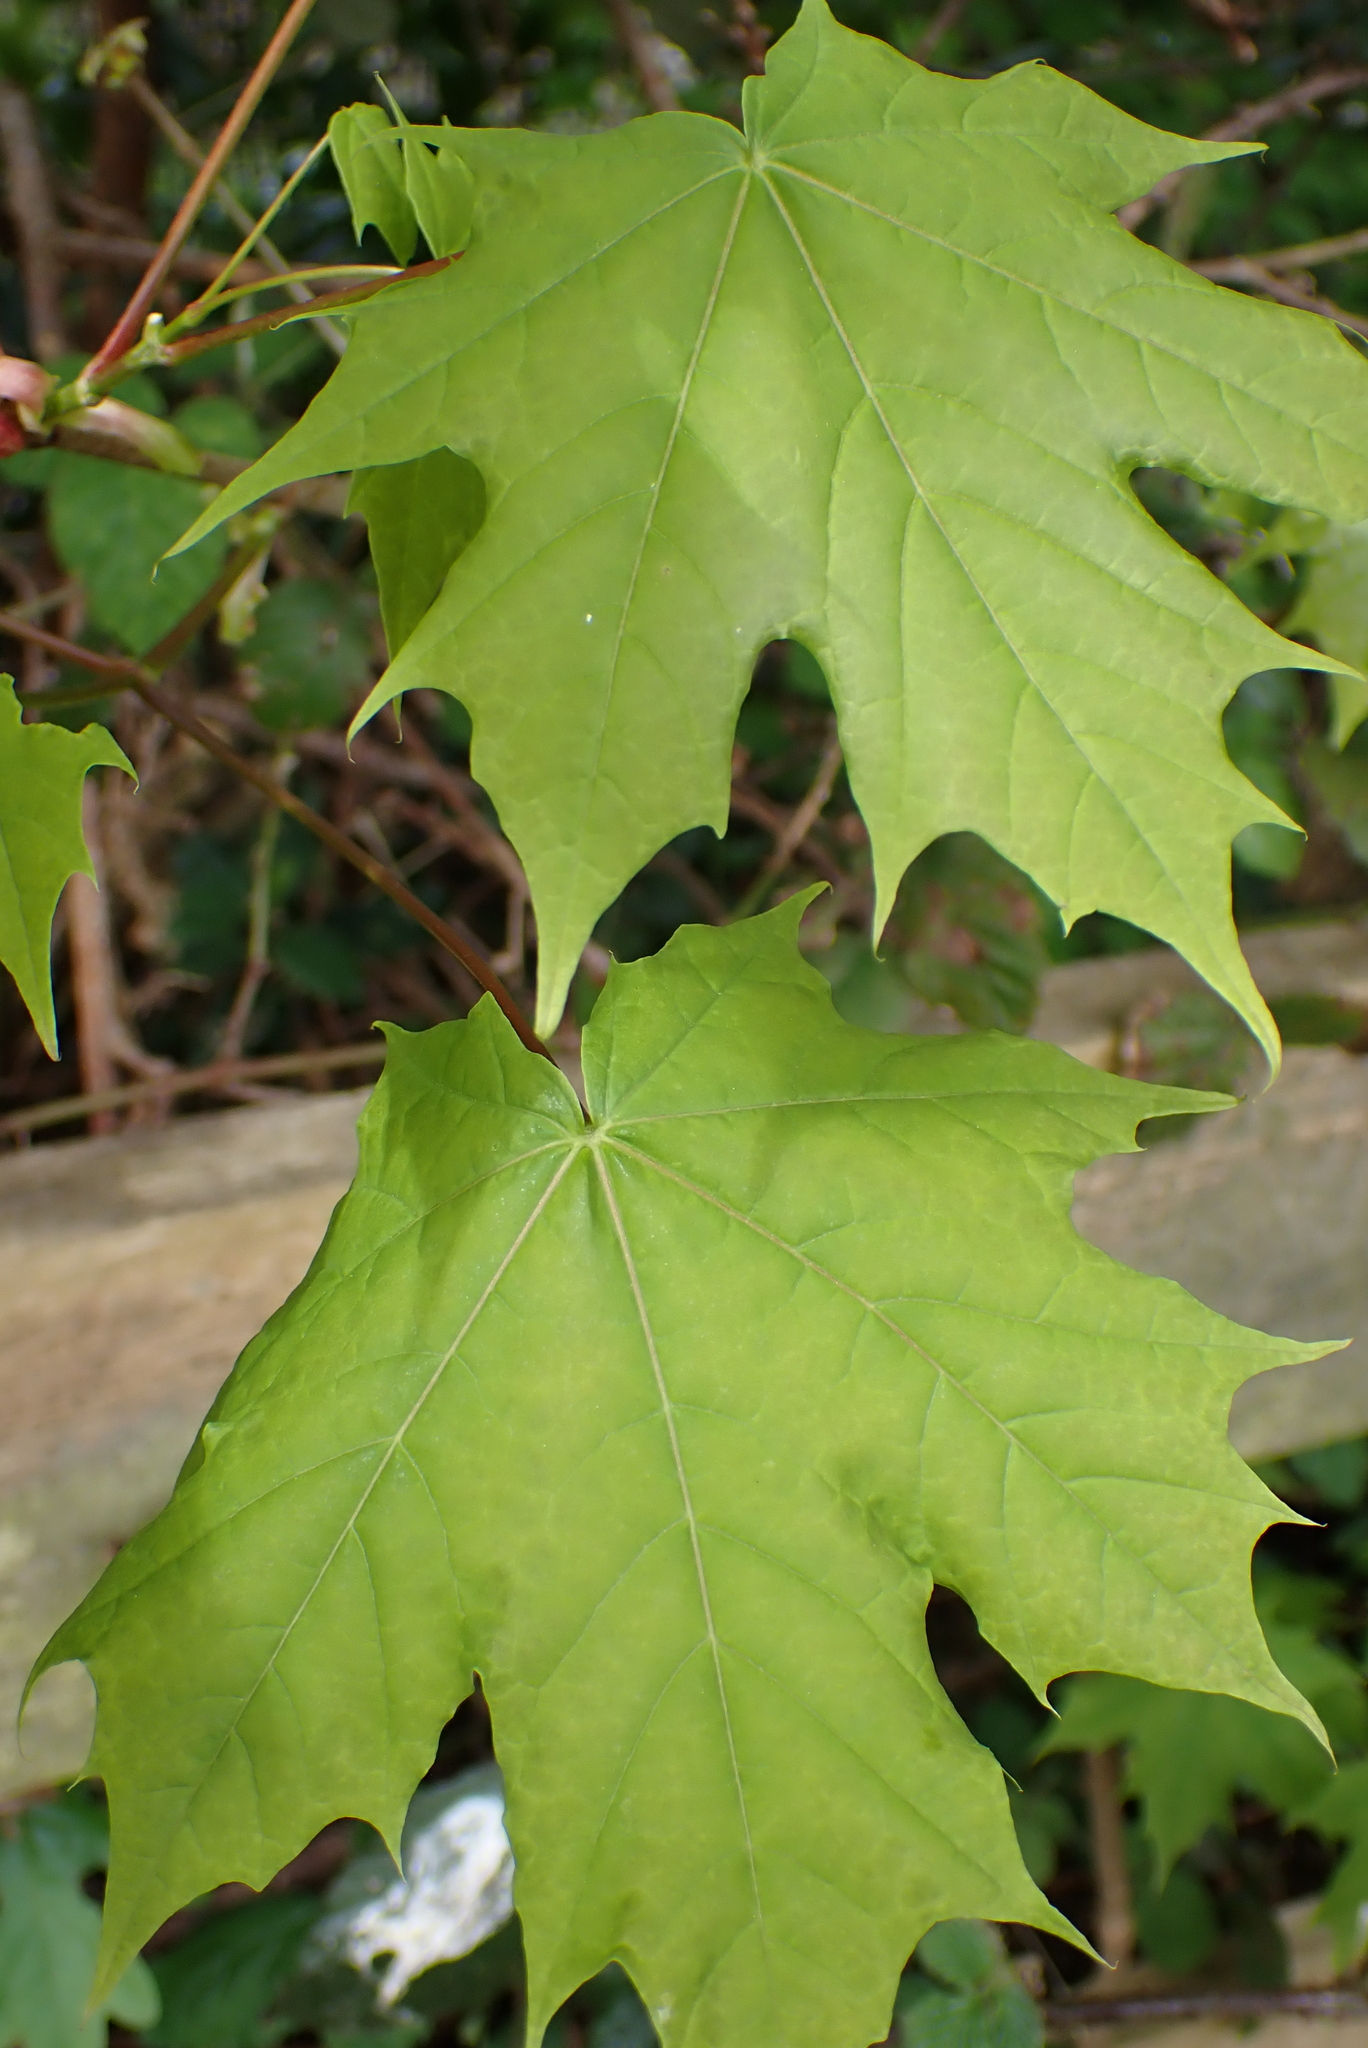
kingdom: Plantae
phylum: Tracheophyta
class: Magnoliopsida
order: Sapindales
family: Sapindaceae
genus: Acer
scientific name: Acer platanoides
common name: Norway maple
